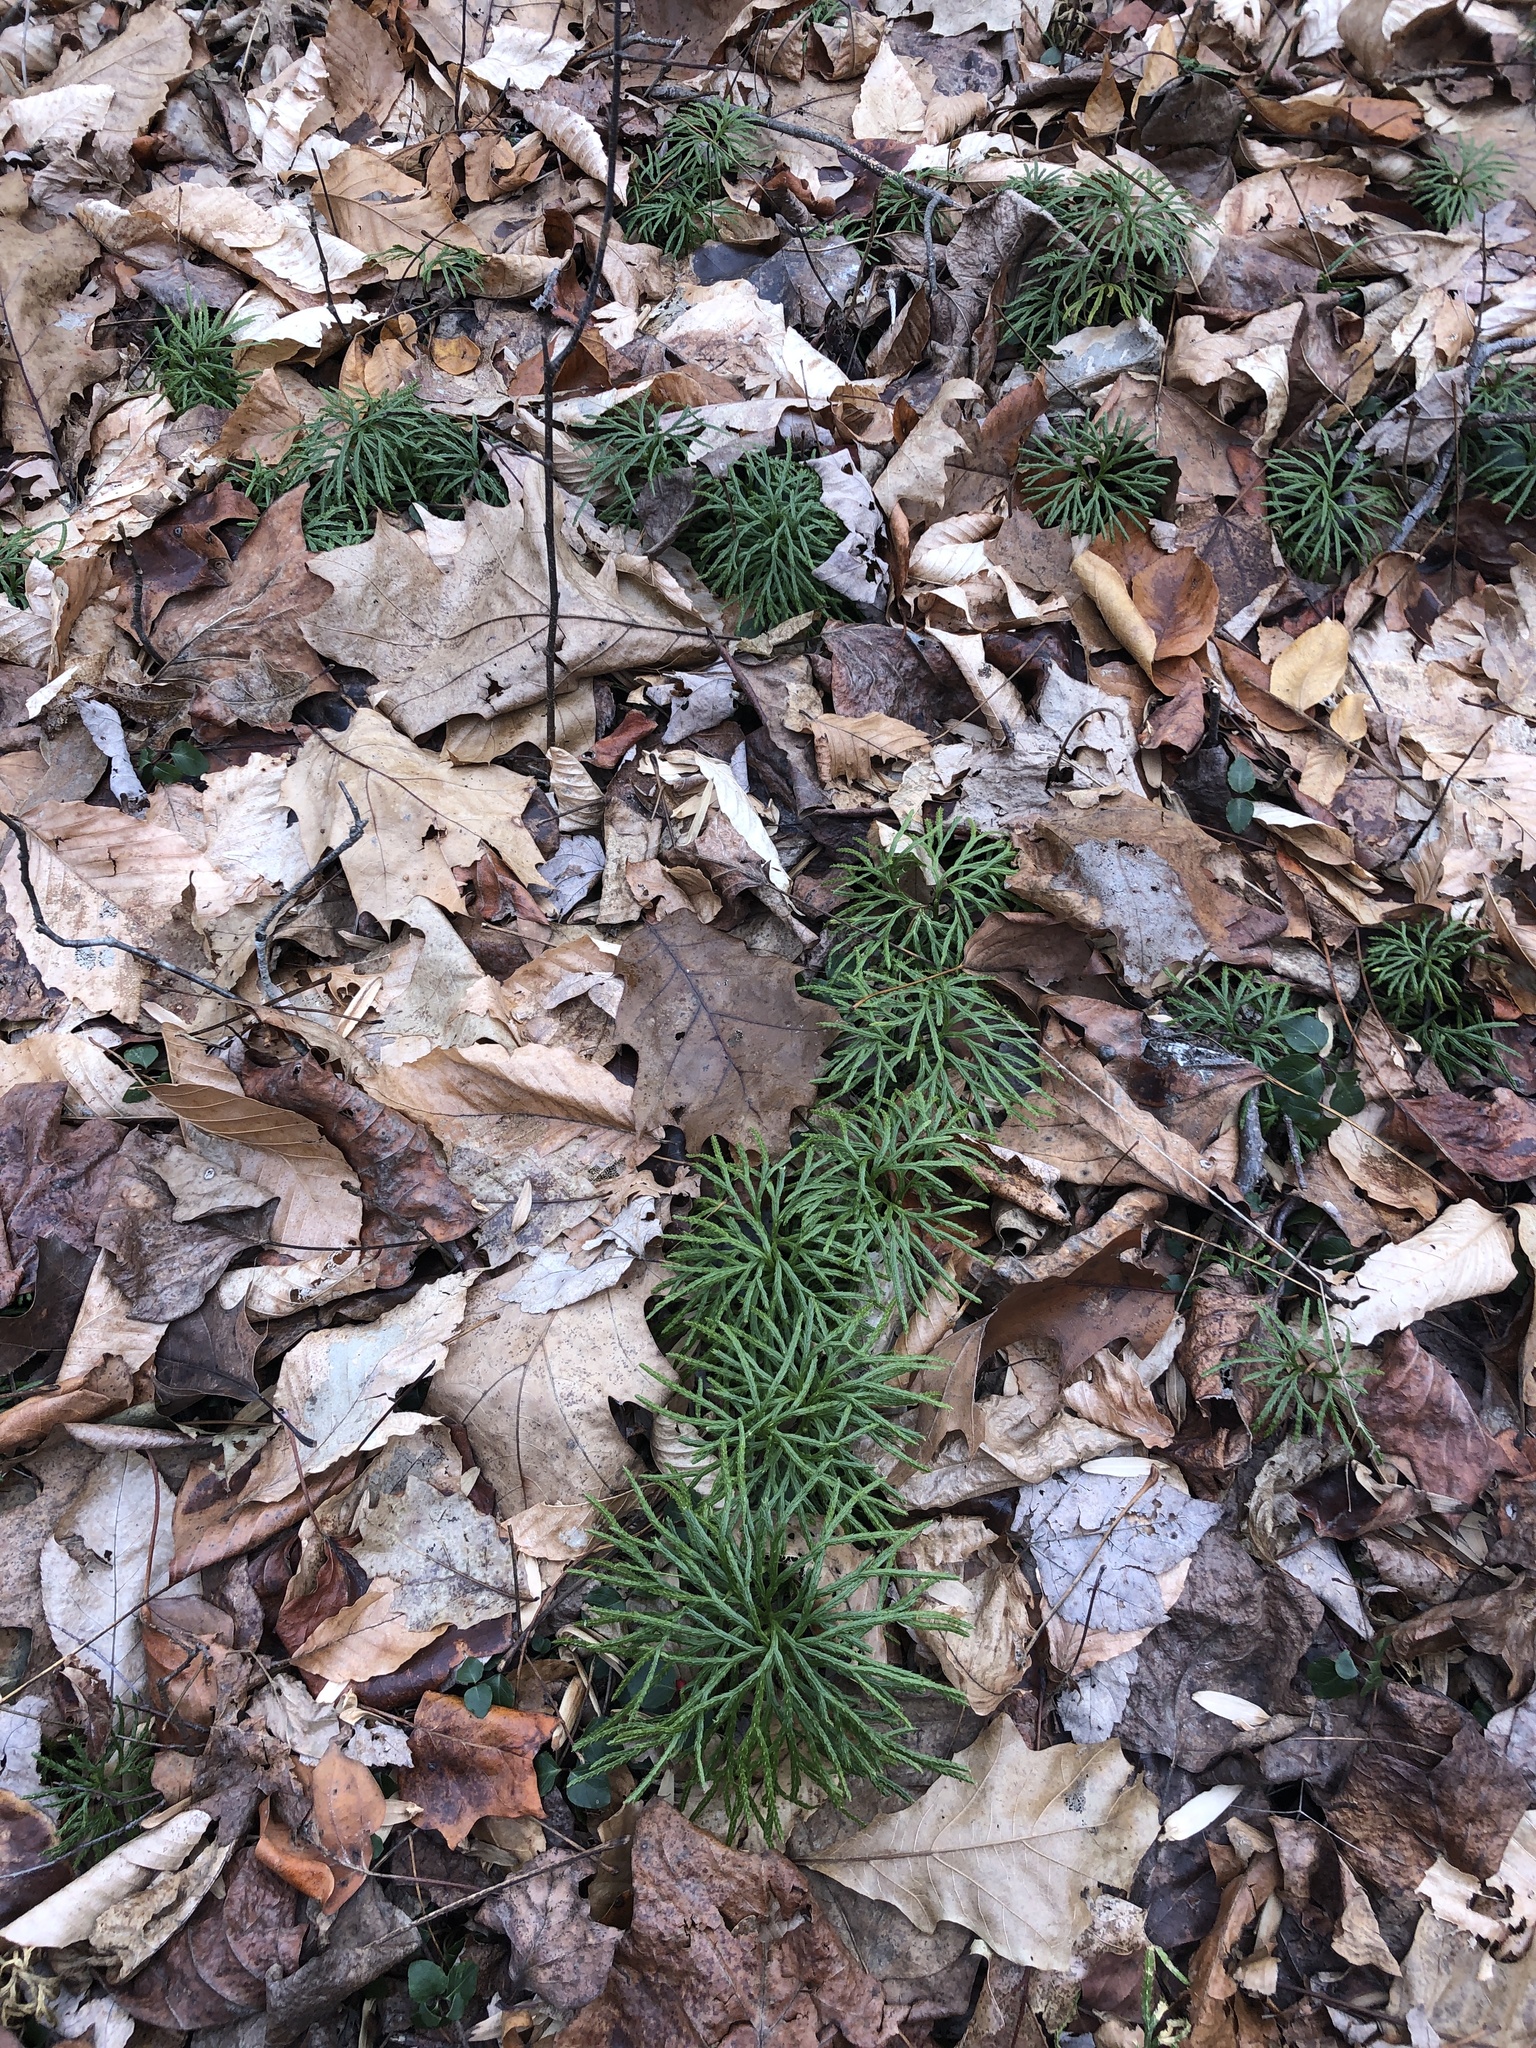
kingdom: Plantae
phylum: Tracheophyta
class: Lycopodiopsida
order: Lycopodiales
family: Lycopodiaceae
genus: Diphasiastrum
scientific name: Diphasiastrum digitatum
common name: Southern running-pine
